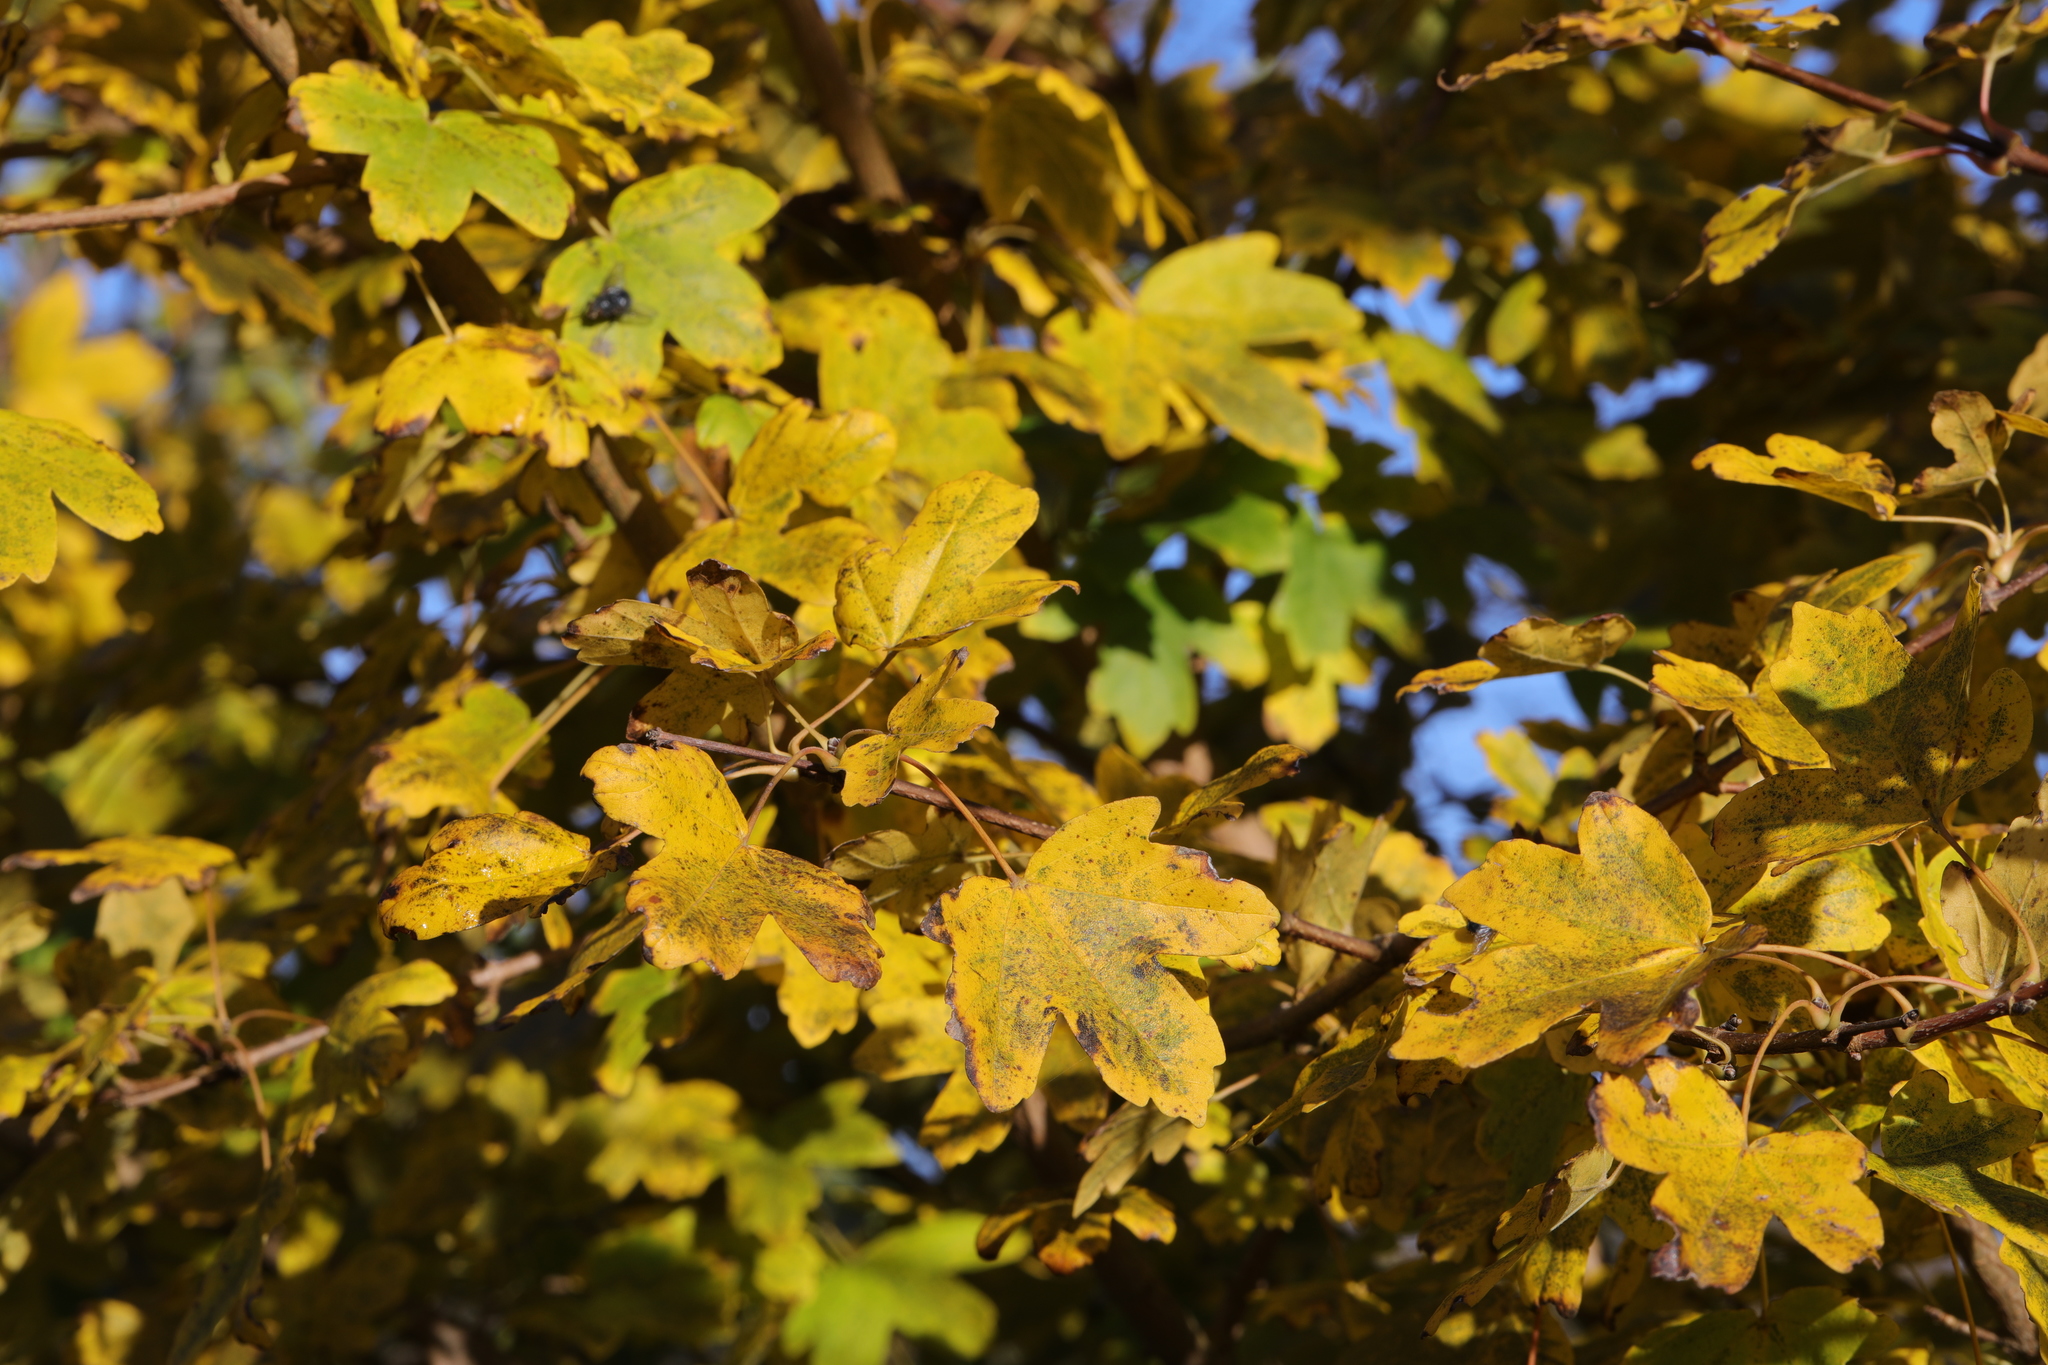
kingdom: Plantae
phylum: Tracheophyta
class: Magnoliopsida
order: Sapindales
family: Sapindaceae
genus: Acer
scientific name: Acer campestre
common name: Field maple
